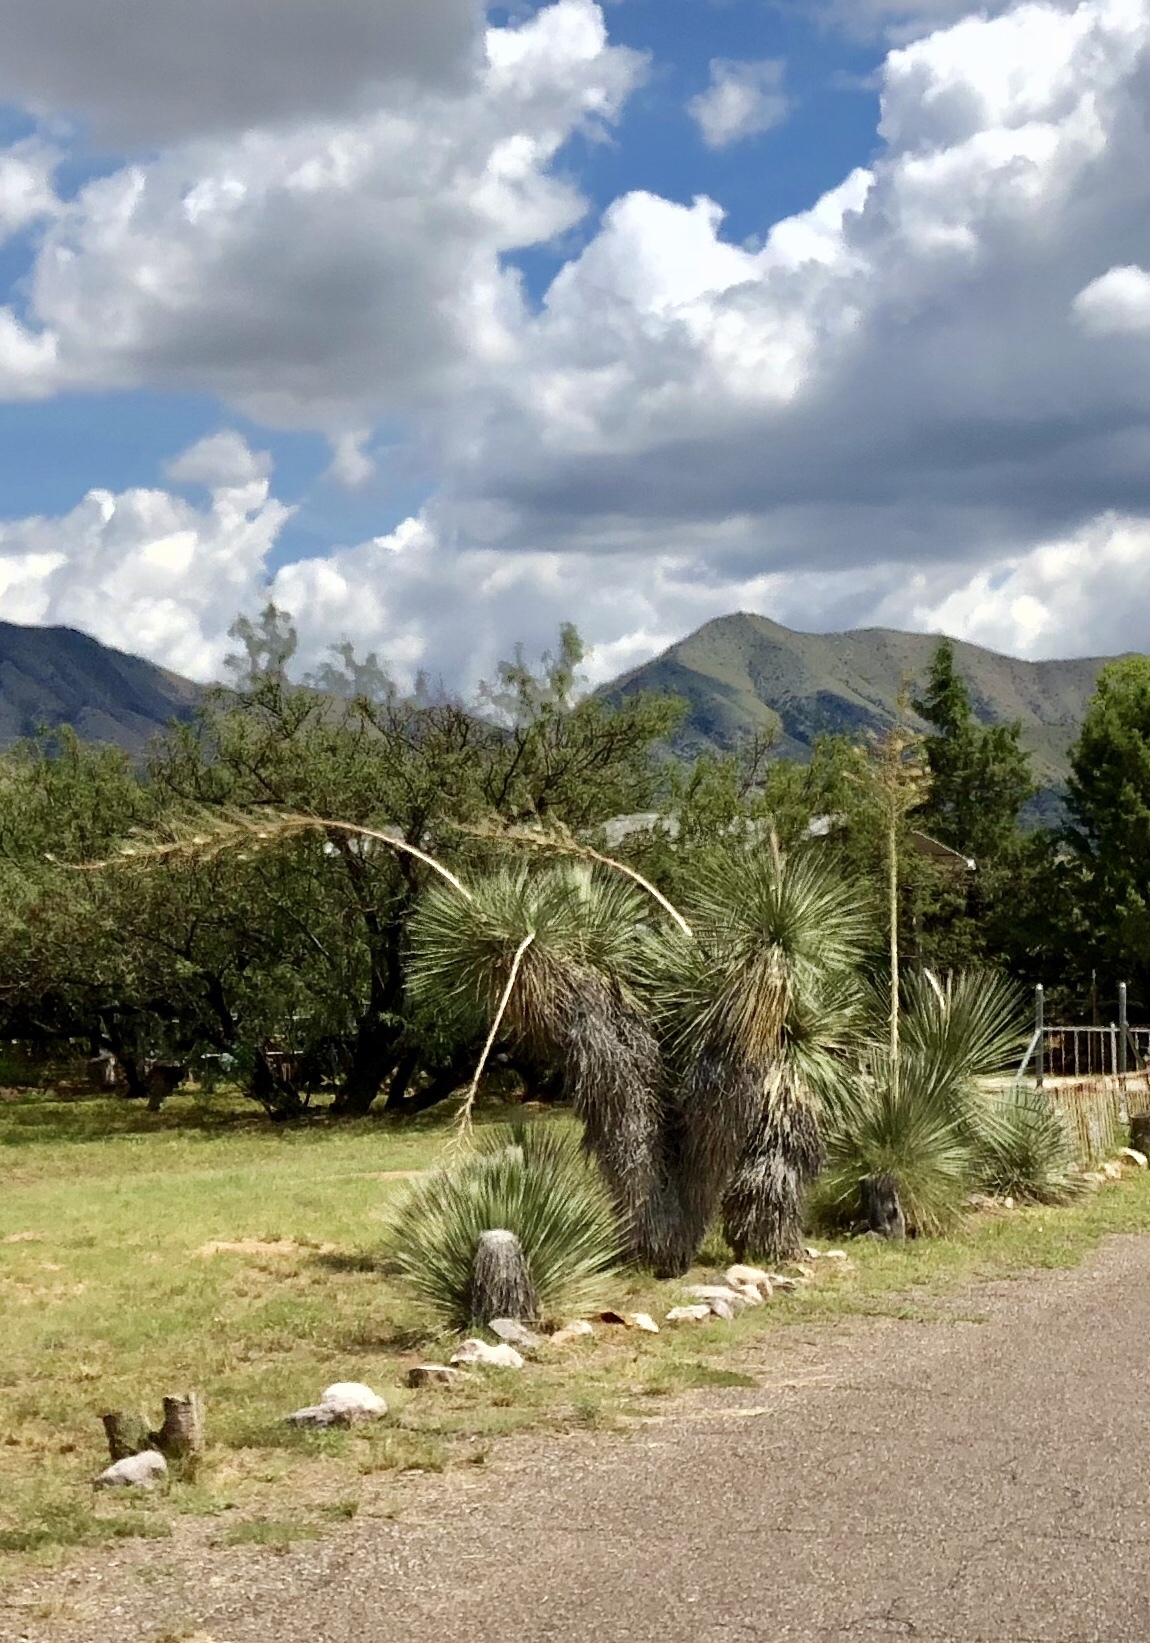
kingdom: Plantae
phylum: Tracheophyta
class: Liliopsida
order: Asparagales
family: Asparagaceae
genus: Yucca
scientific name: Yucca elata
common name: Palmella
